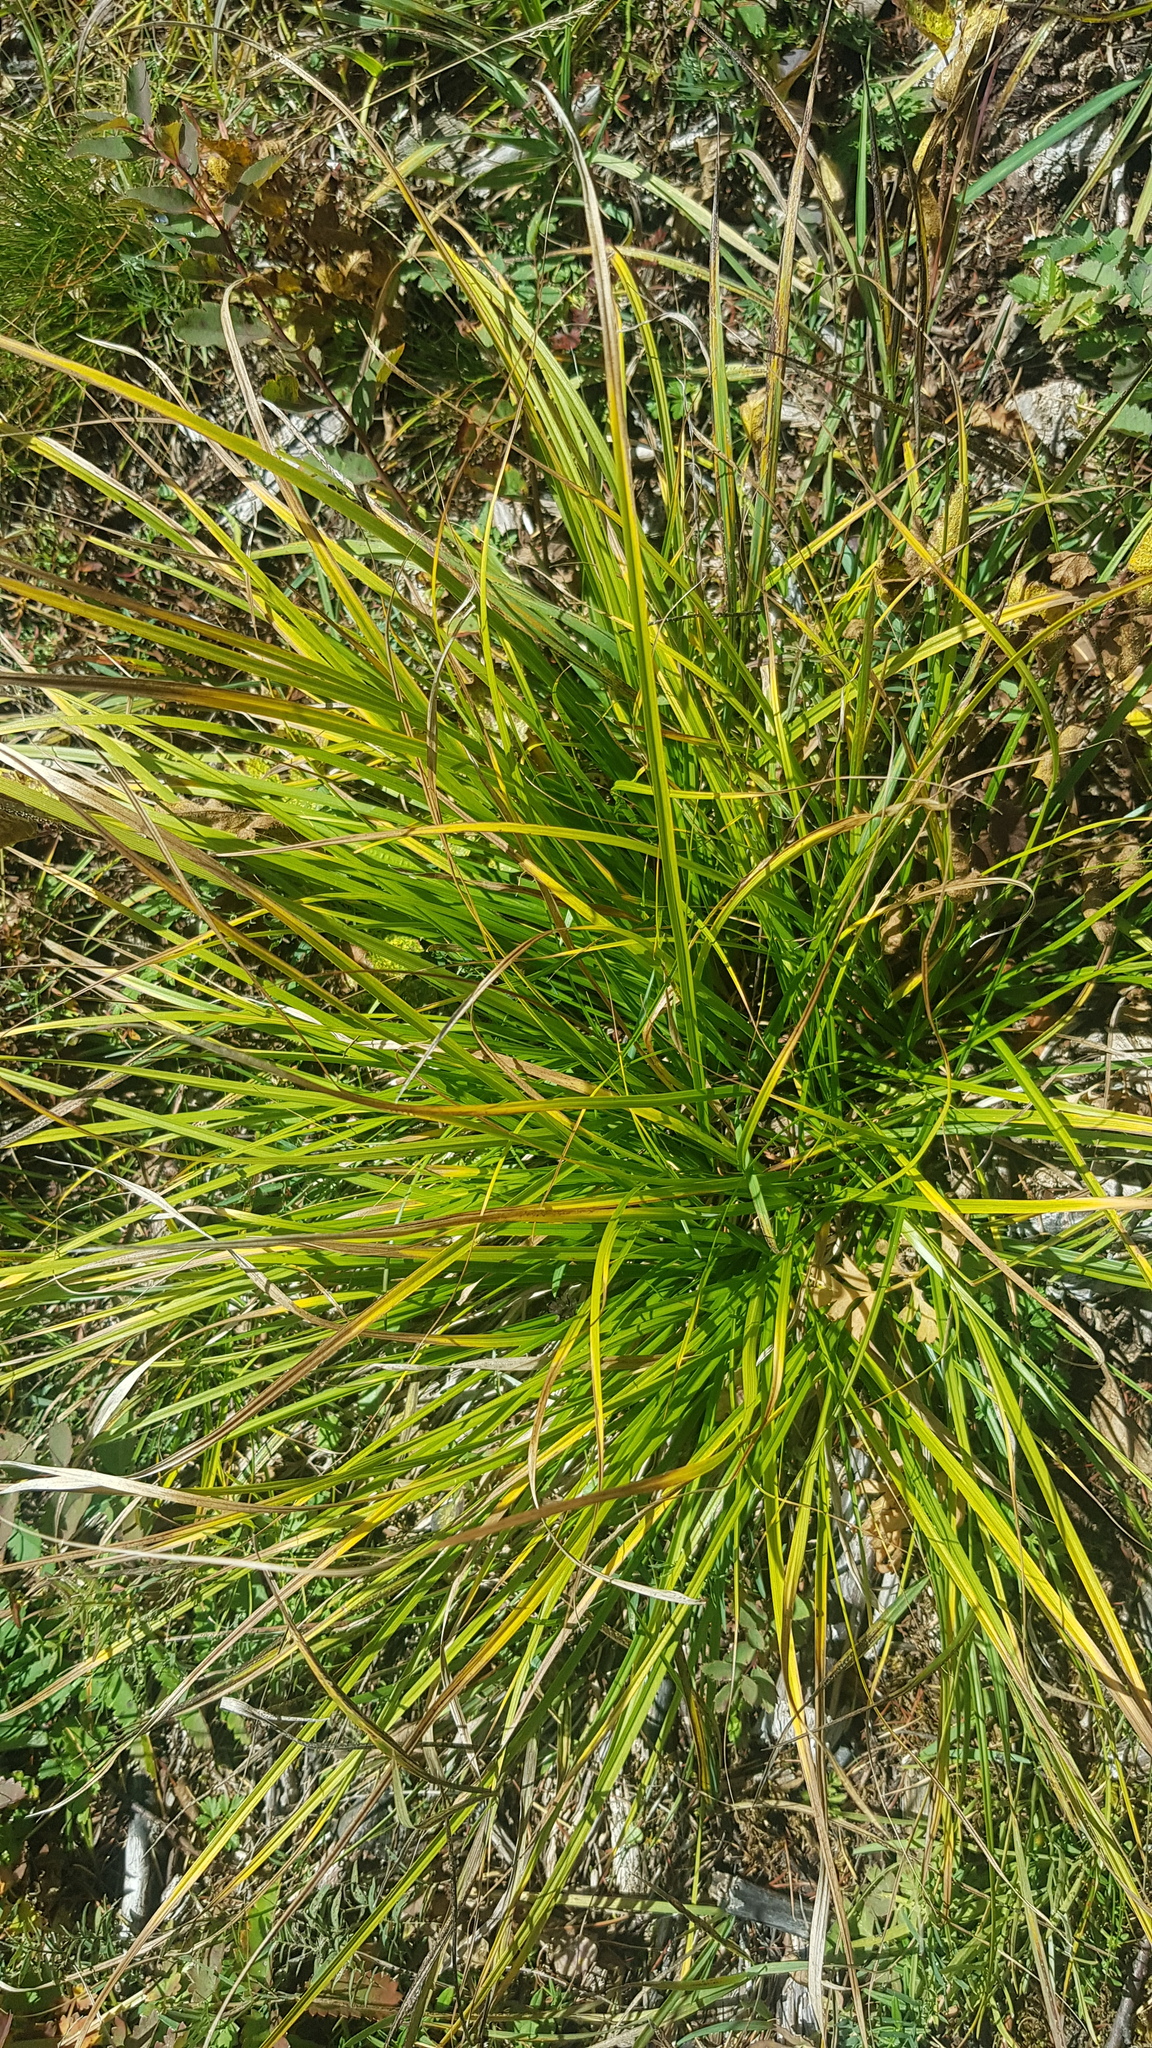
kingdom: Plantae
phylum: Tracheophyta
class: Liliopsida
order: Poales
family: Cyperaceae
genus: Carex
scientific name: Carex pediformis
